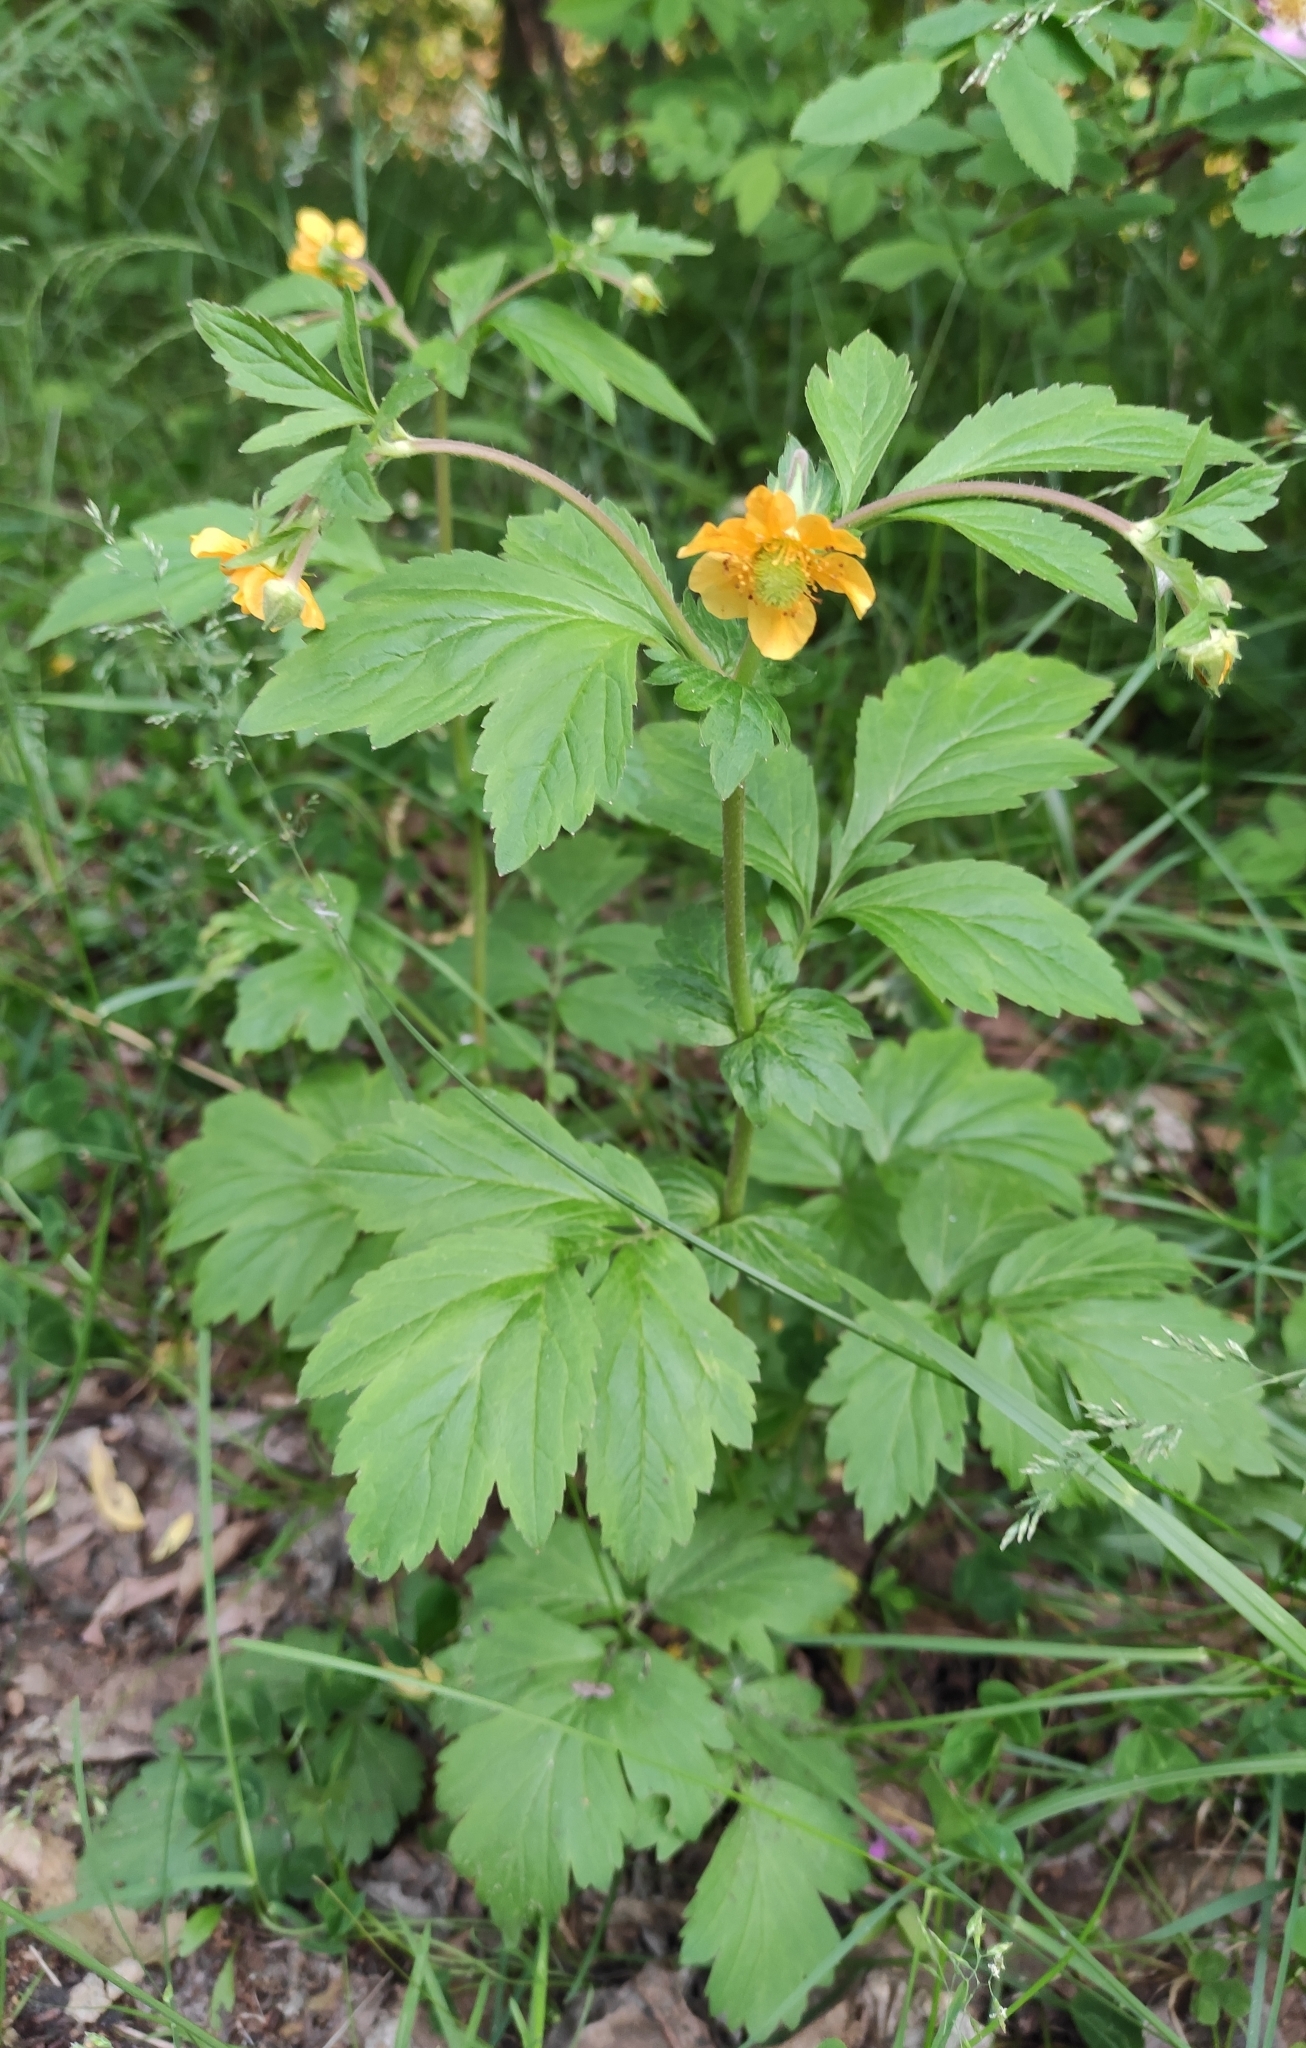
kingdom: Plantae
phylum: Tracheophyta
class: Magnoliopsida
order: Rosales
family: Rosaceae
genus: Geum
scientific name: Geum aleppicum
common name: Yellow avens
